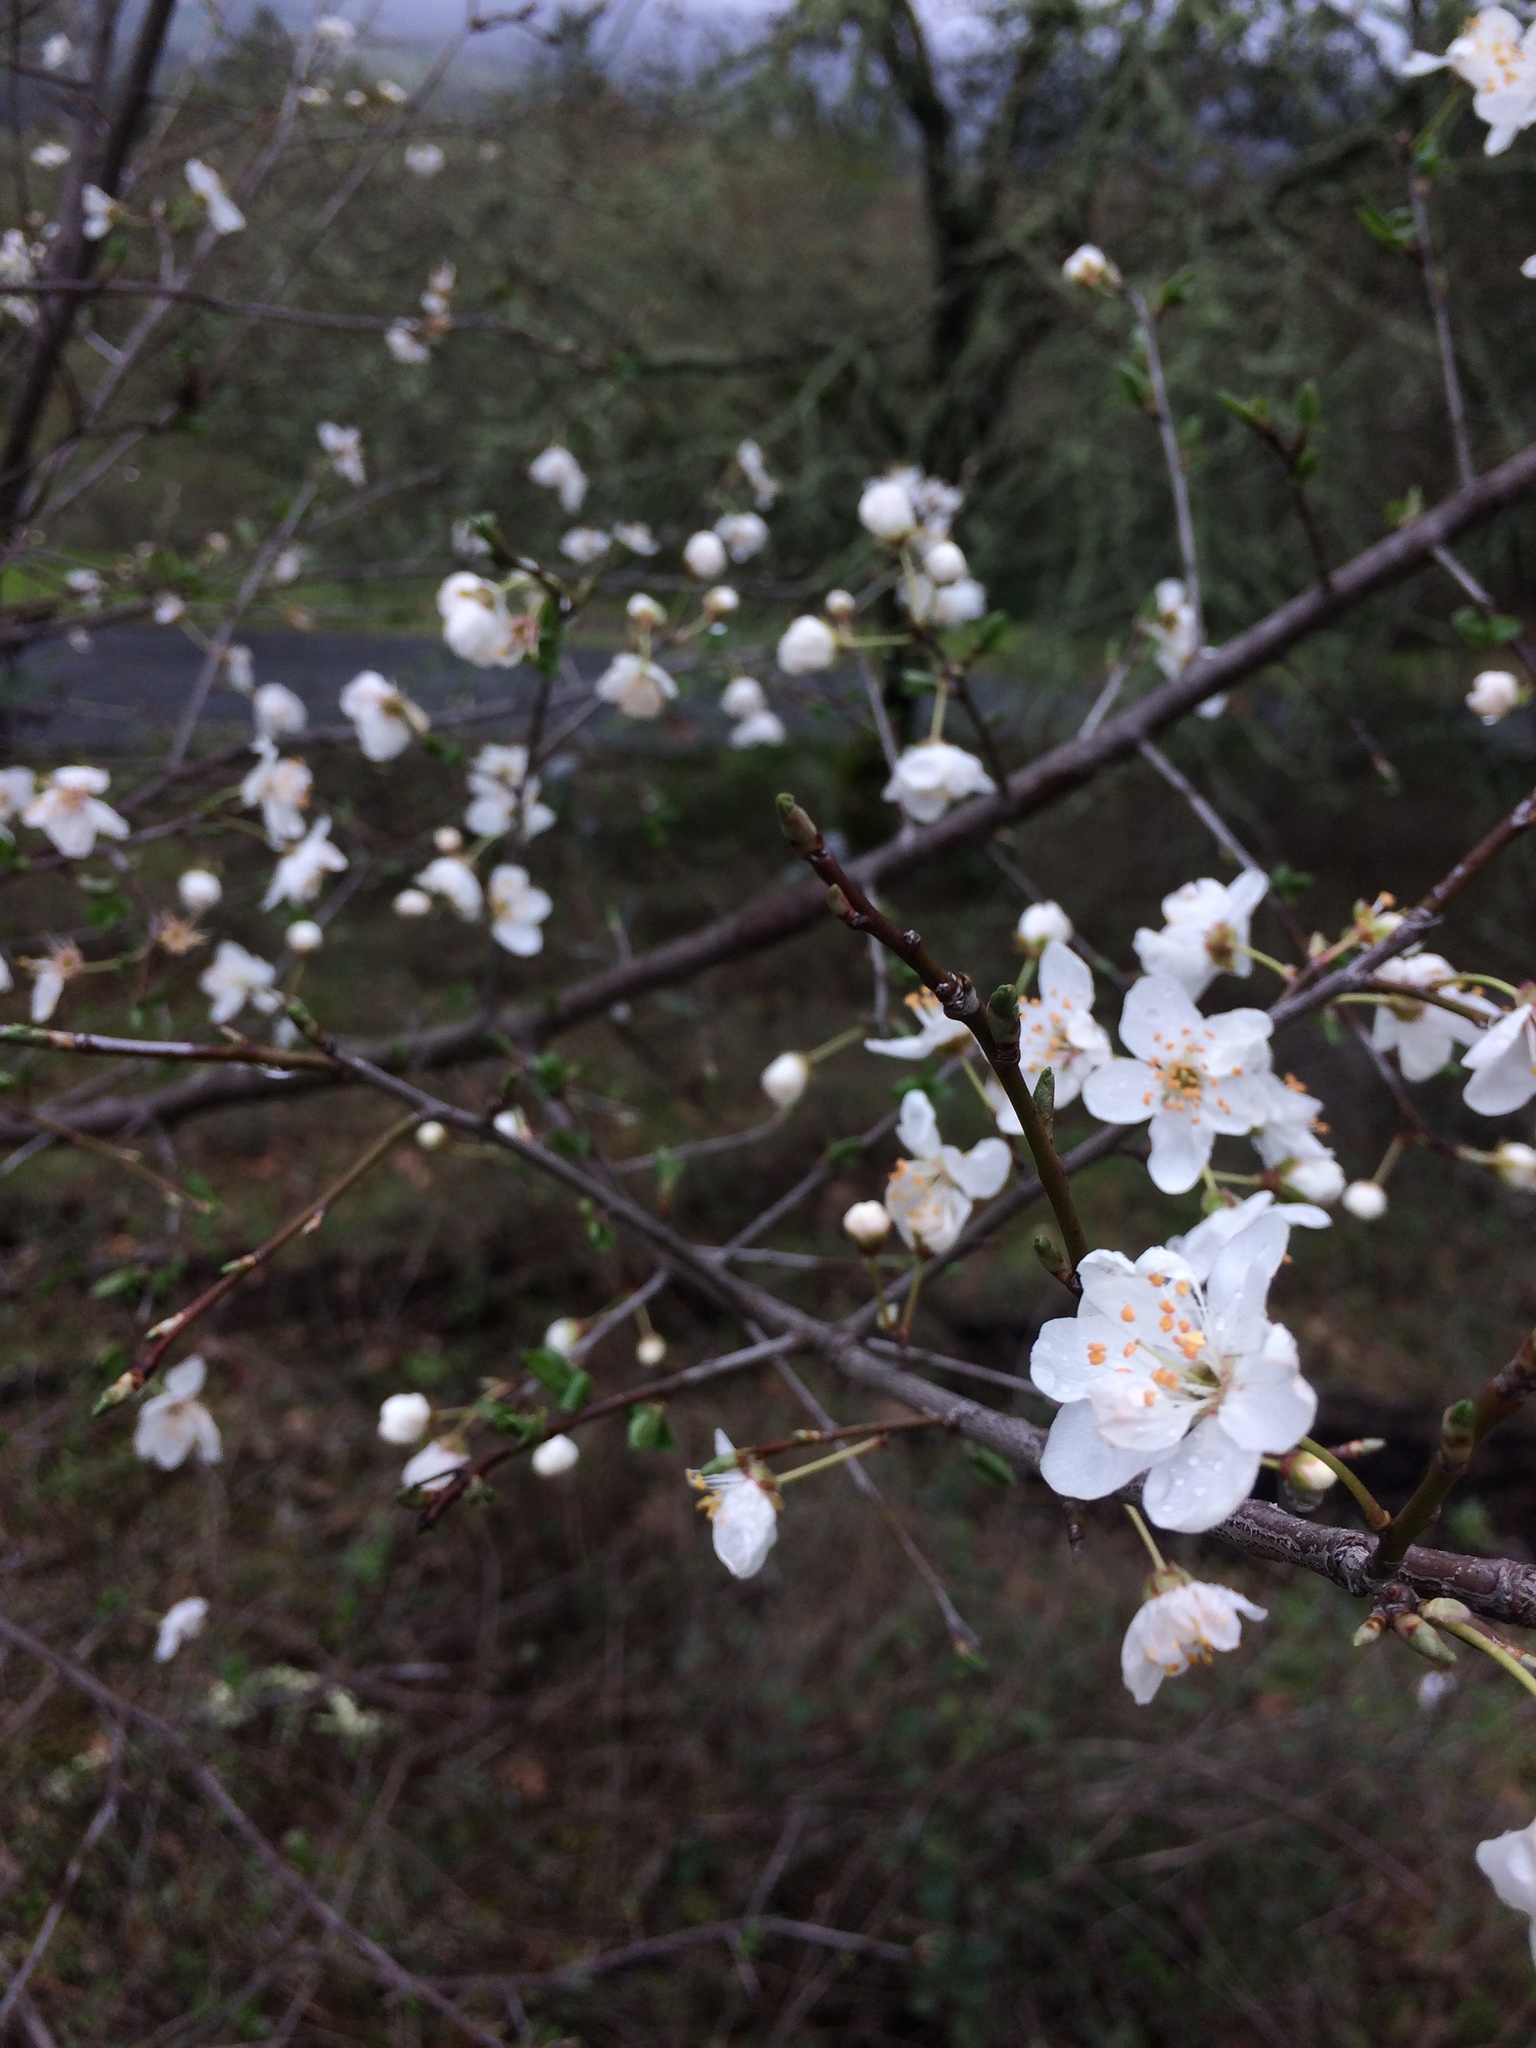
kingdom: Plantae
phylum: Tracheophyta
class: Magnoliopsida
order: Rosales
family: Rosaceae
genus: Prunus
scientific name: Prunus cerasifera
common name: Cherry plum
